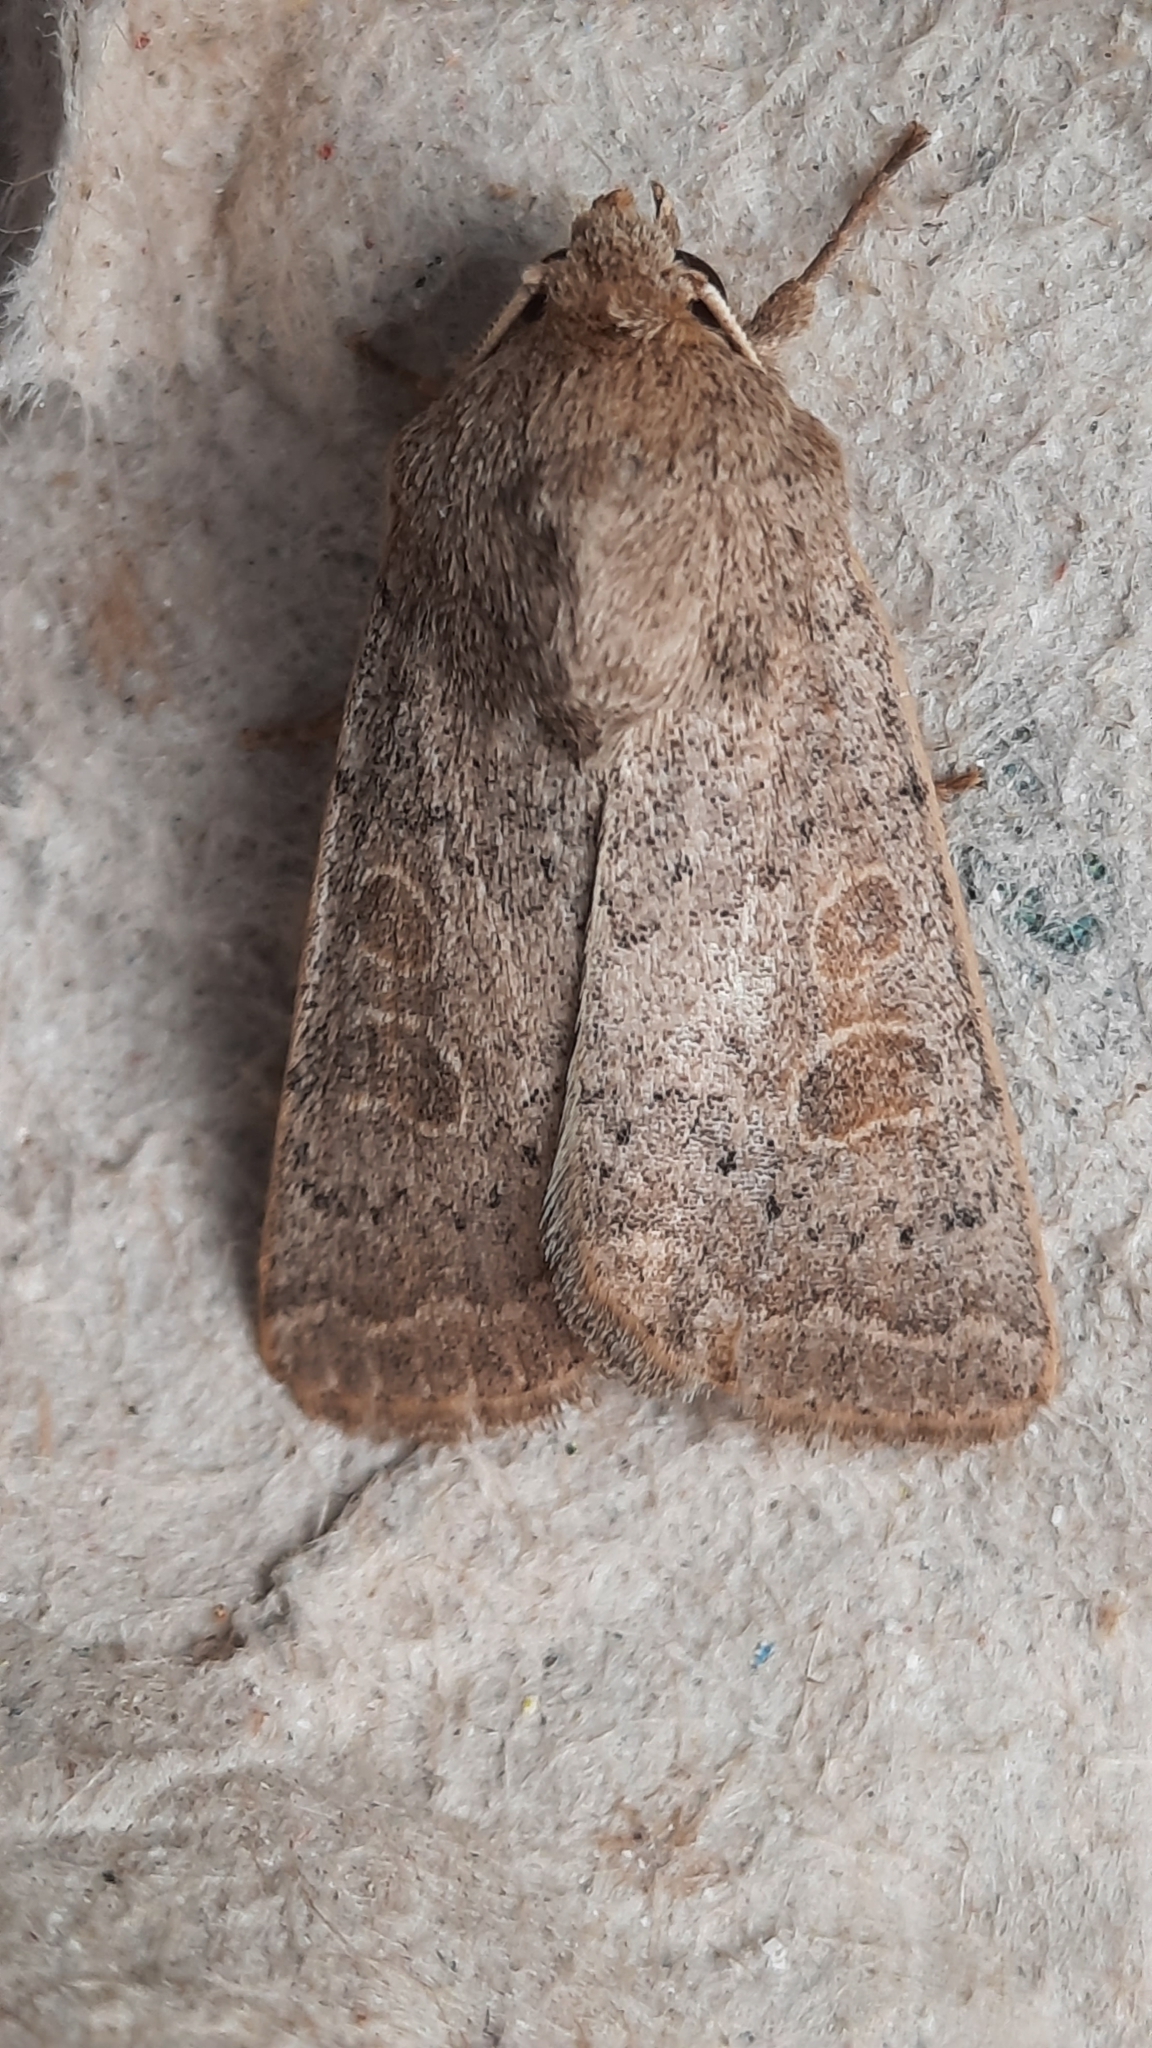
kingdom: Animalia
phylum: Arthropoda
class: Insecta
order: Lepidoptera
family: Noctuidae
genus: Hoplodrina
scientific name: Hoplodrina ambigua
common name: Vine's rustic
